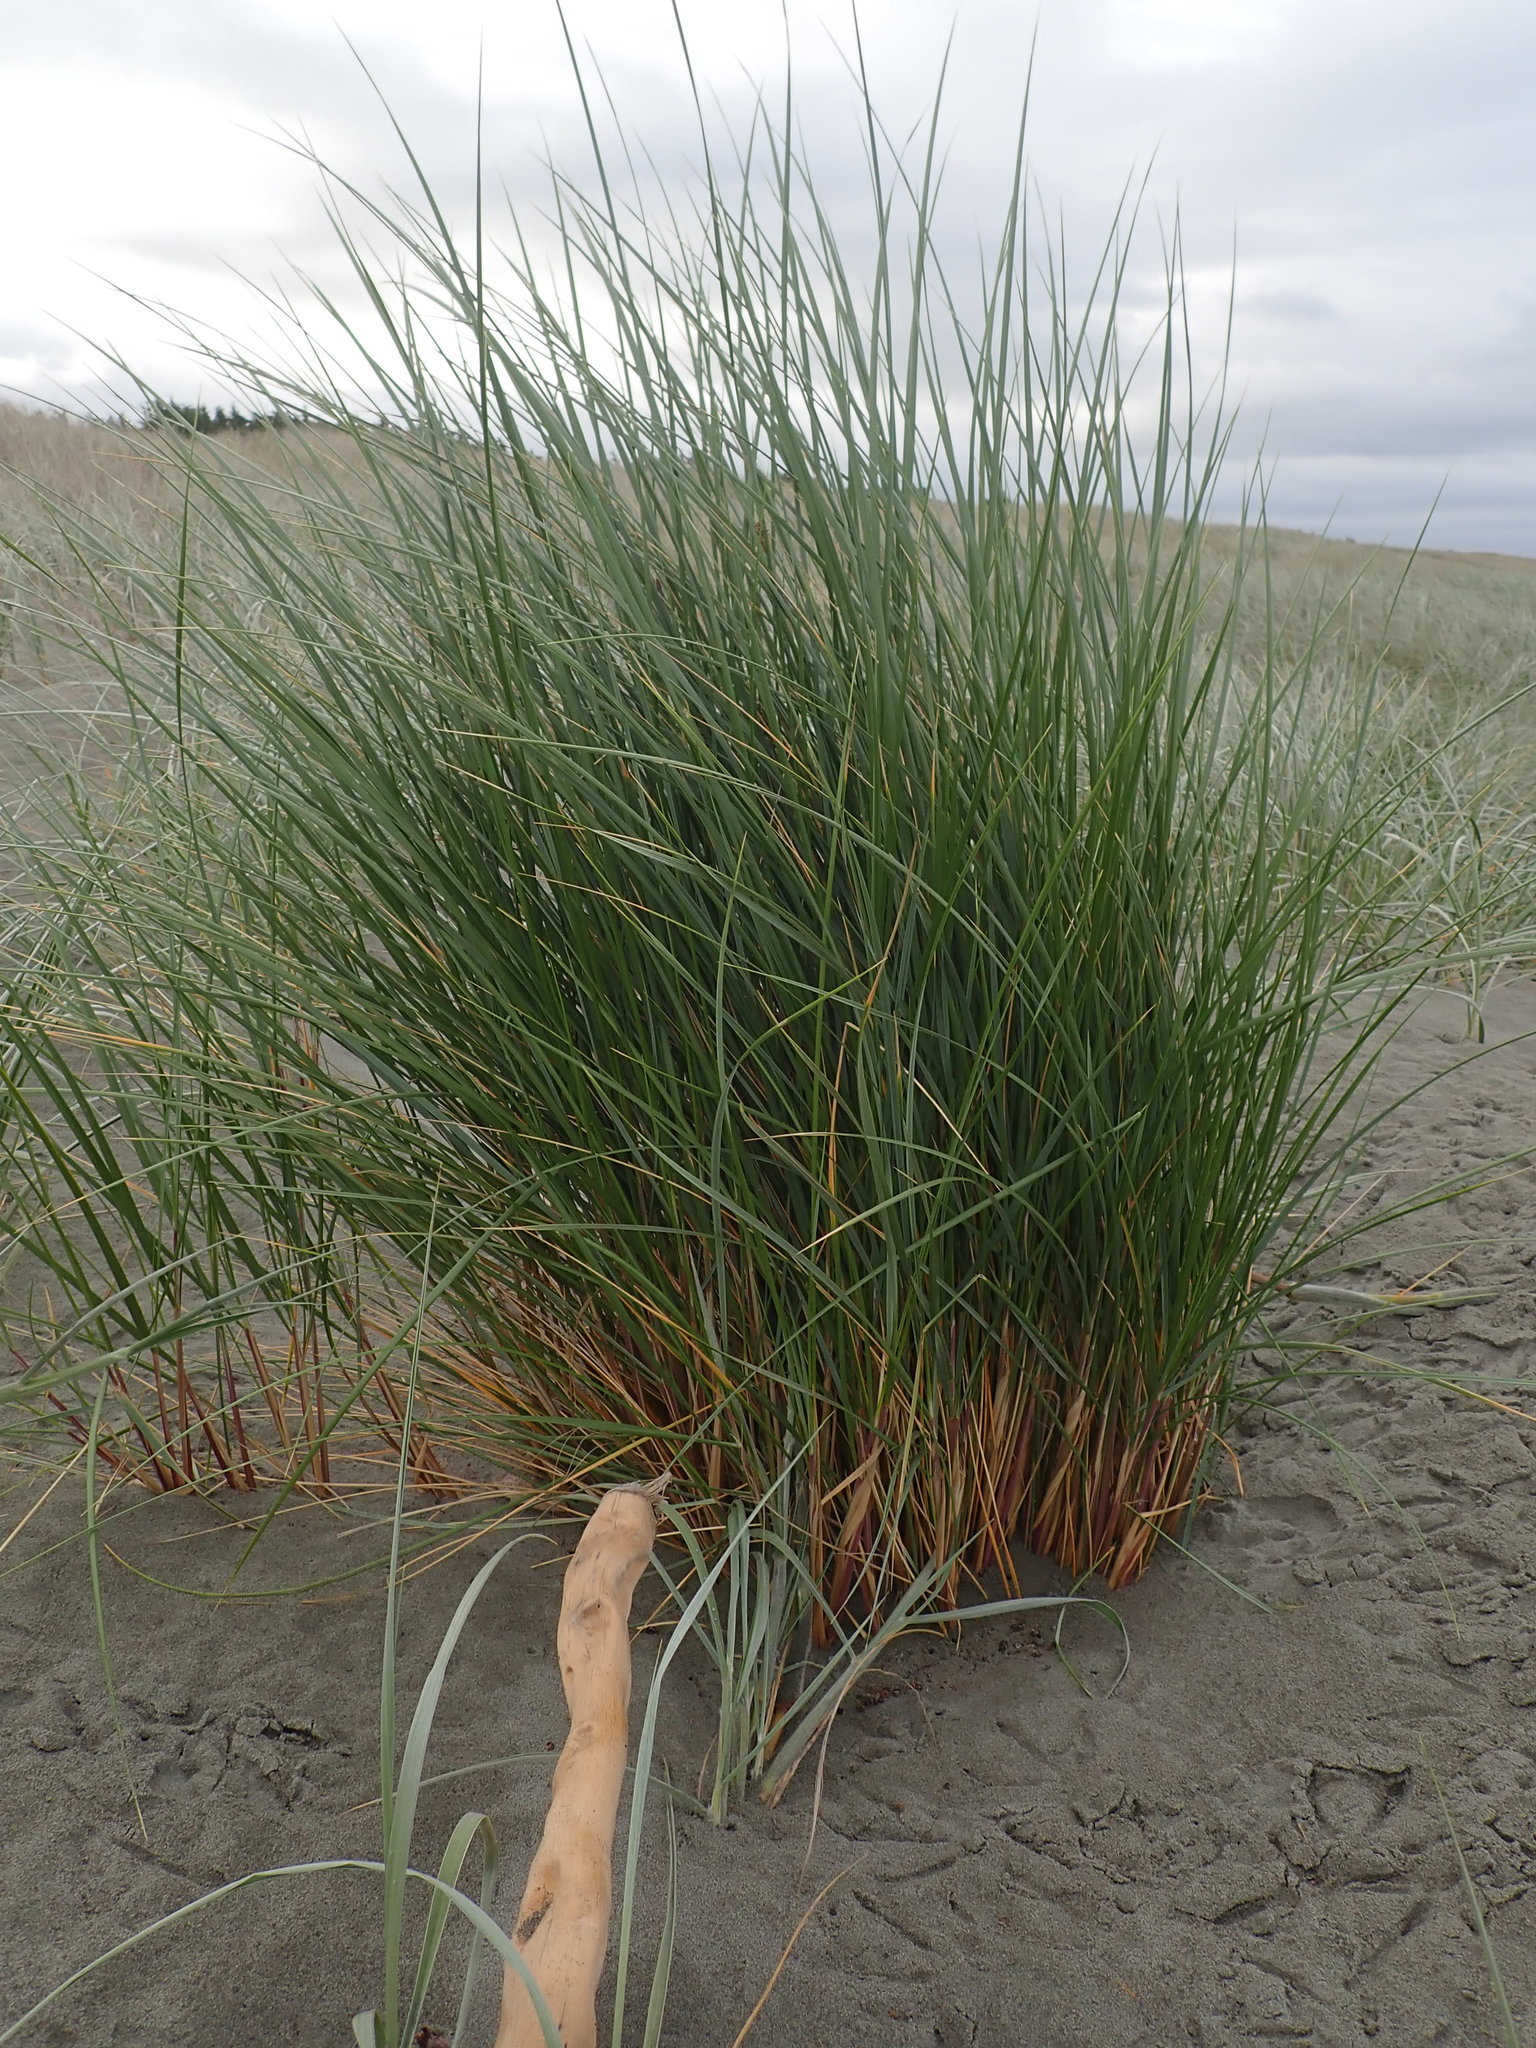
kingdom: Animalia
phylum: Arthropoda
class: Insecta
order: Hemiptera
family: Cicadidae
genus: Rhodopsalta
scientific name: Rhodopsalta leptomera
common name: Sand dune redtail cicada
